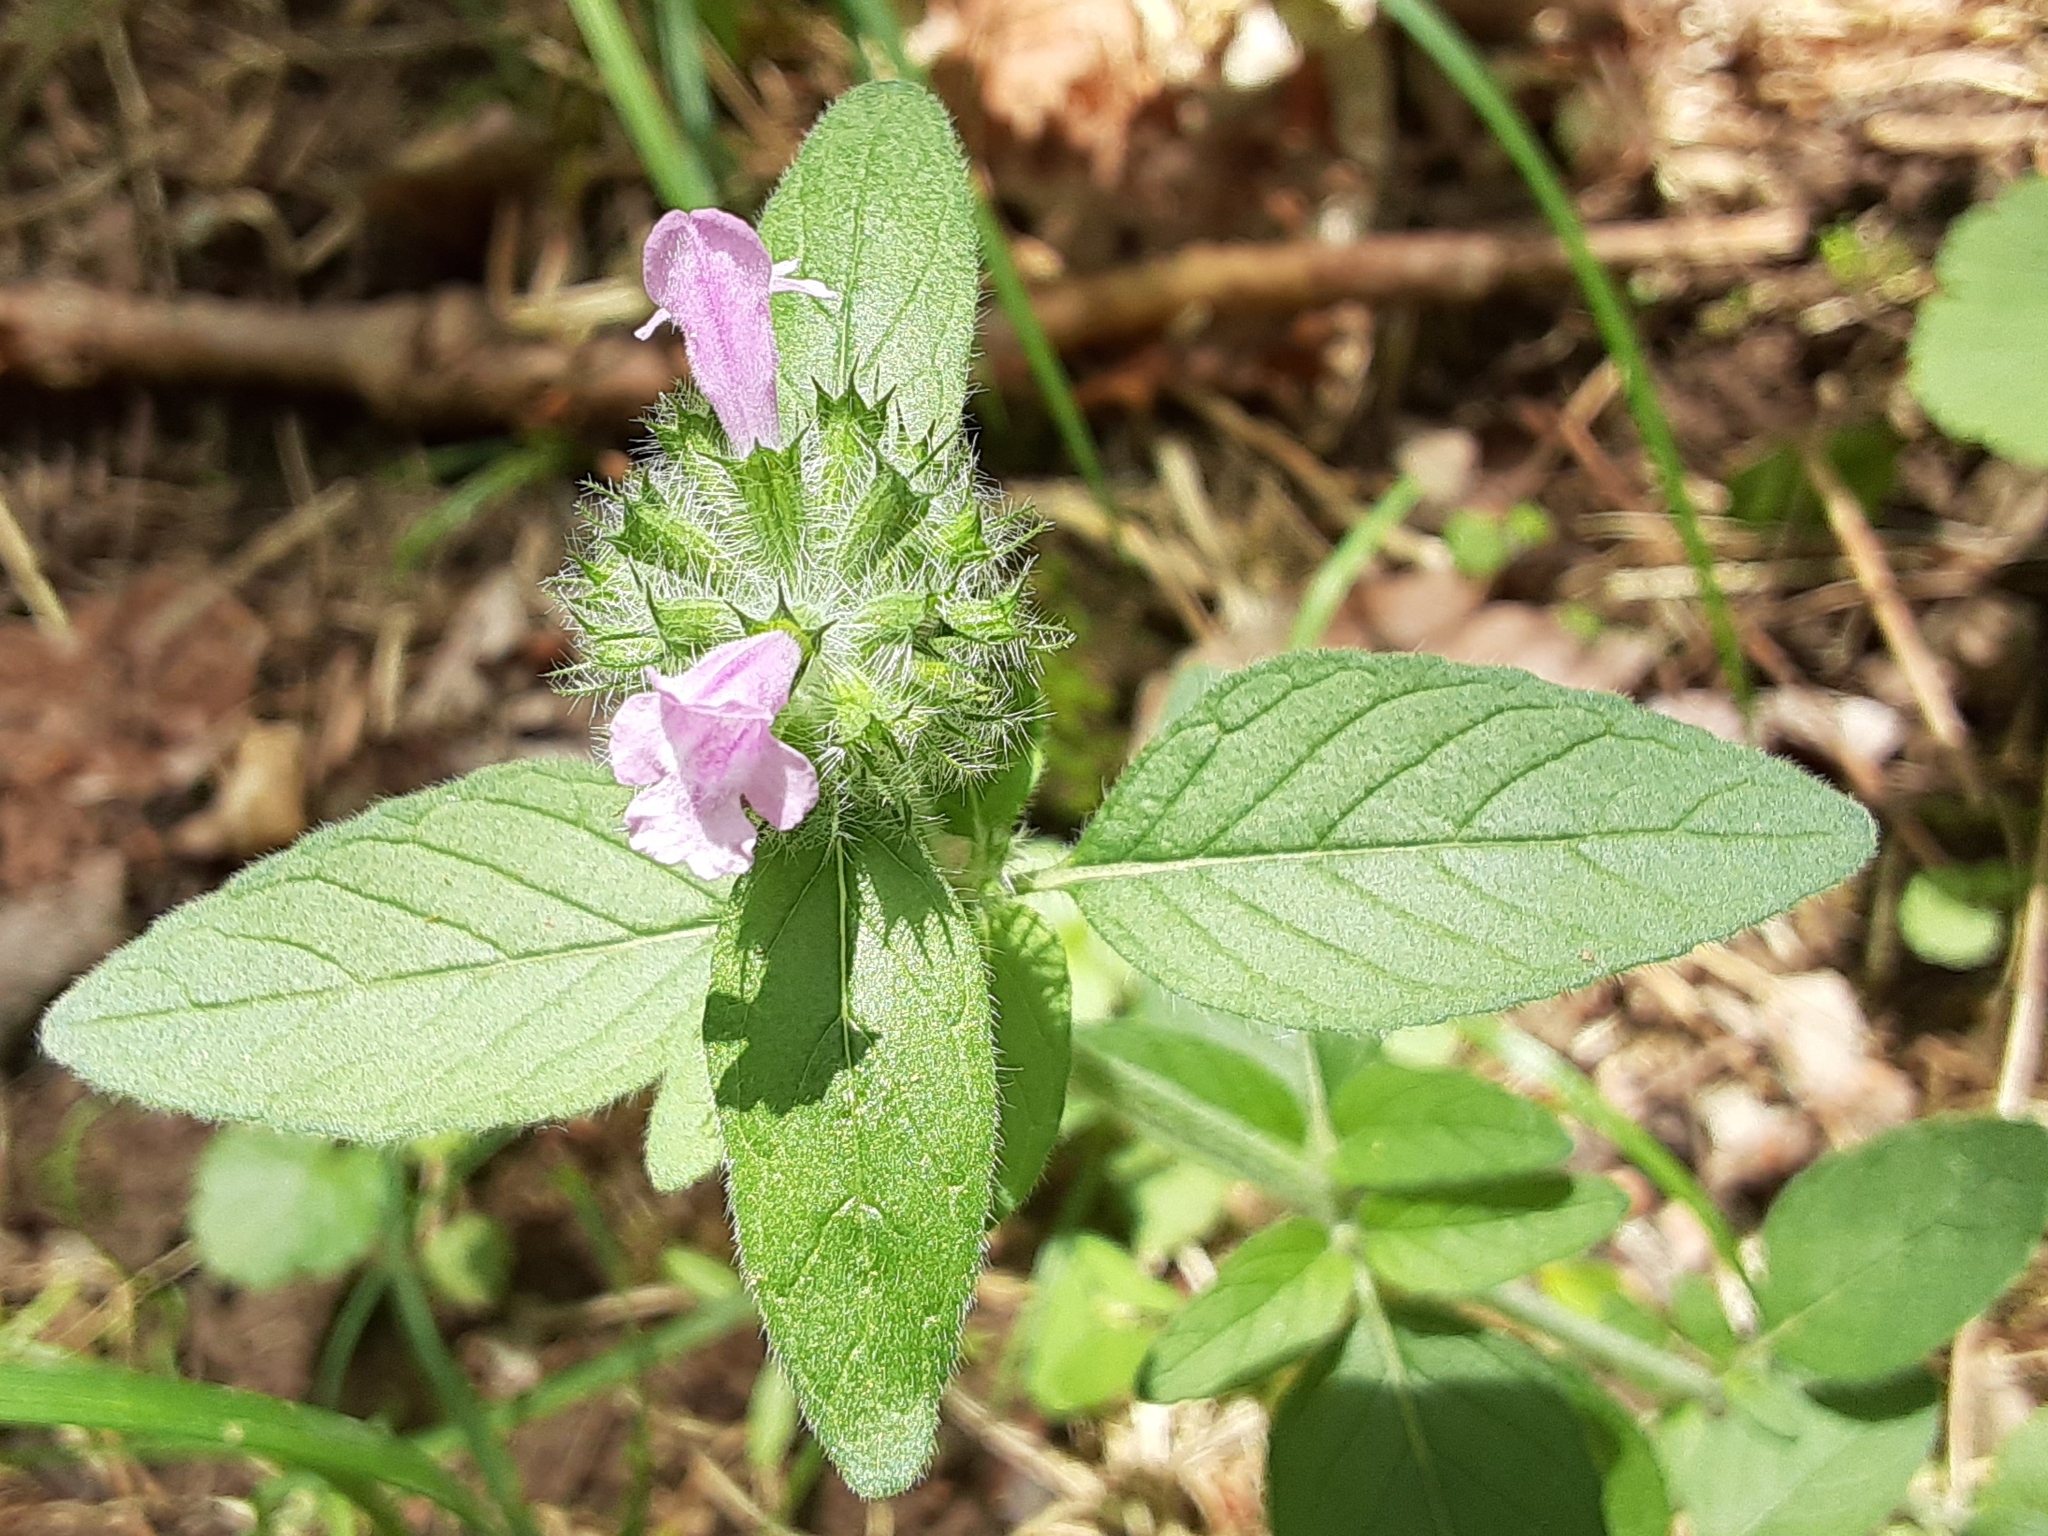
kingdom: Plantae
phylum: Tracheophyta
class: Magnoliopsida
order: Lamiales
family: Lamiaceae
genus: Clinopodium
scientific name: Clinopodium vulgare
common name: Wild basil
